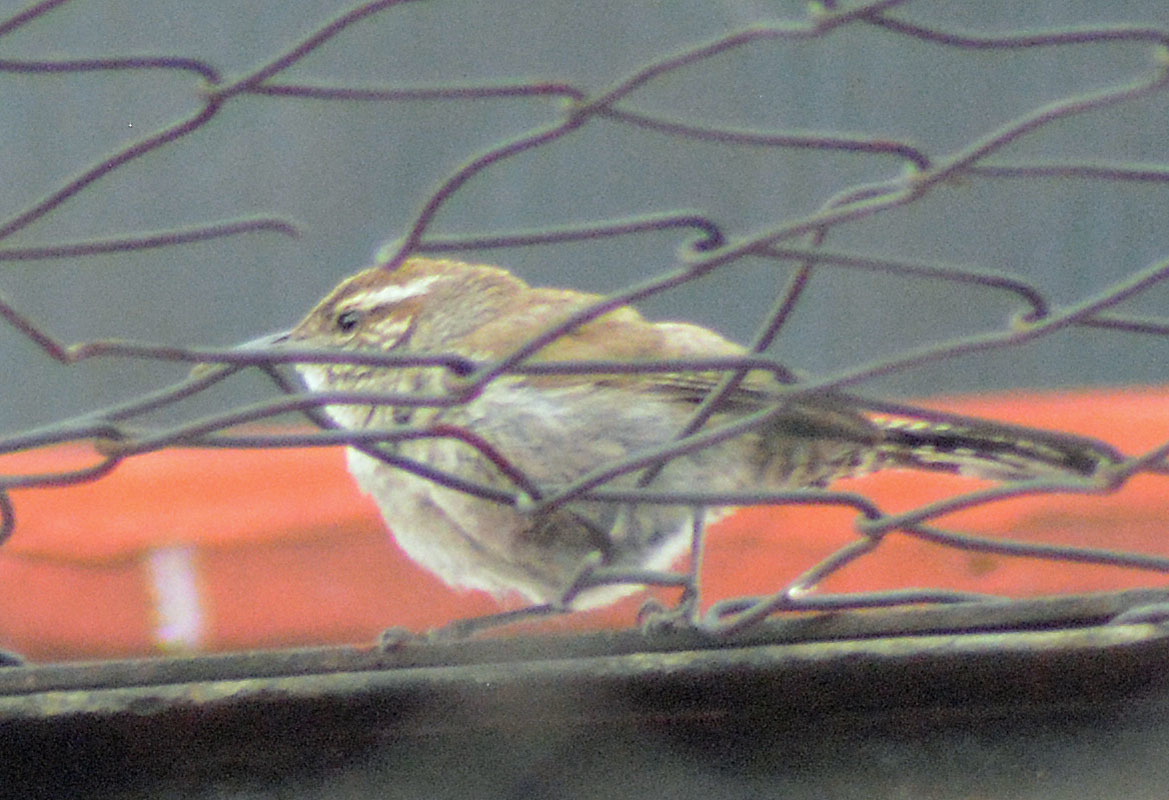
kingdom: Animalia
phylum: Chordata
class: Aves
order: Passeriformes
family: Troglodytidae
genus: Thryomanes
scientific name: Thryomanes bewickii
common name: Bewick's wren
